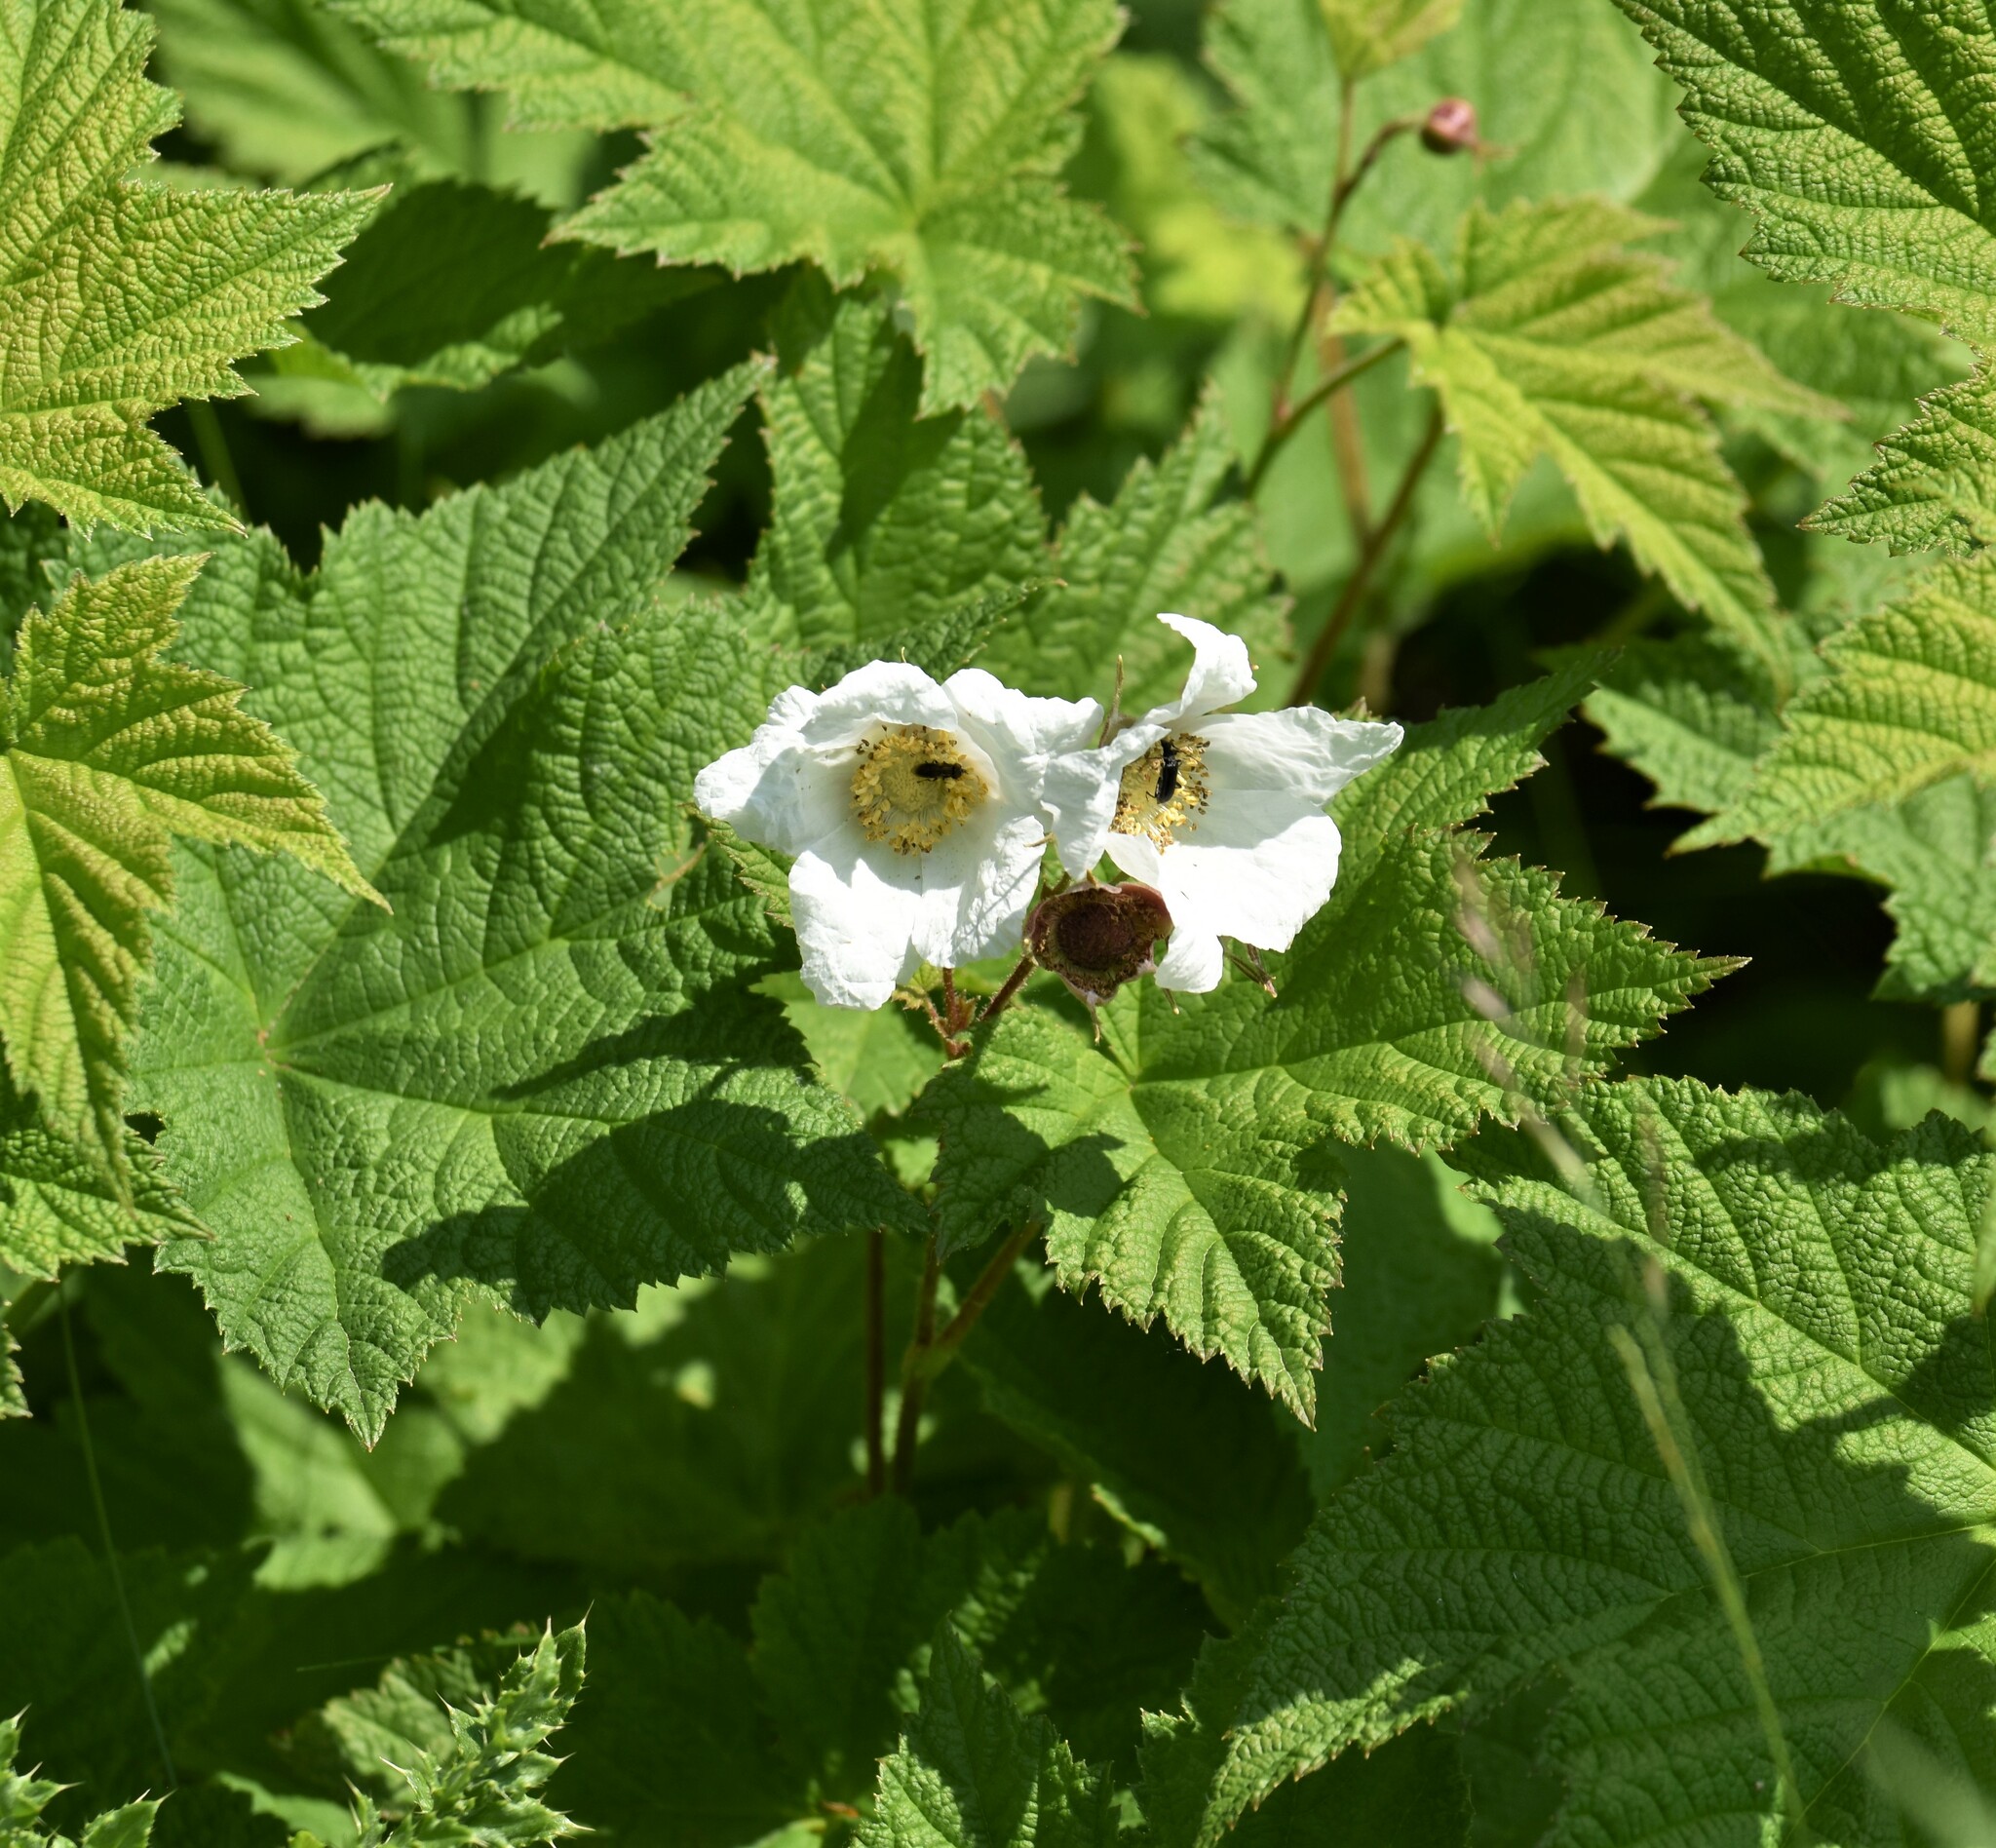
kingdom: Plantae
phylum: Tracheophyta
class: Magnoliopsida
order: Rosales
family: Rosaceae
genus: Rubus
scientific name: Rubus parviflorus
